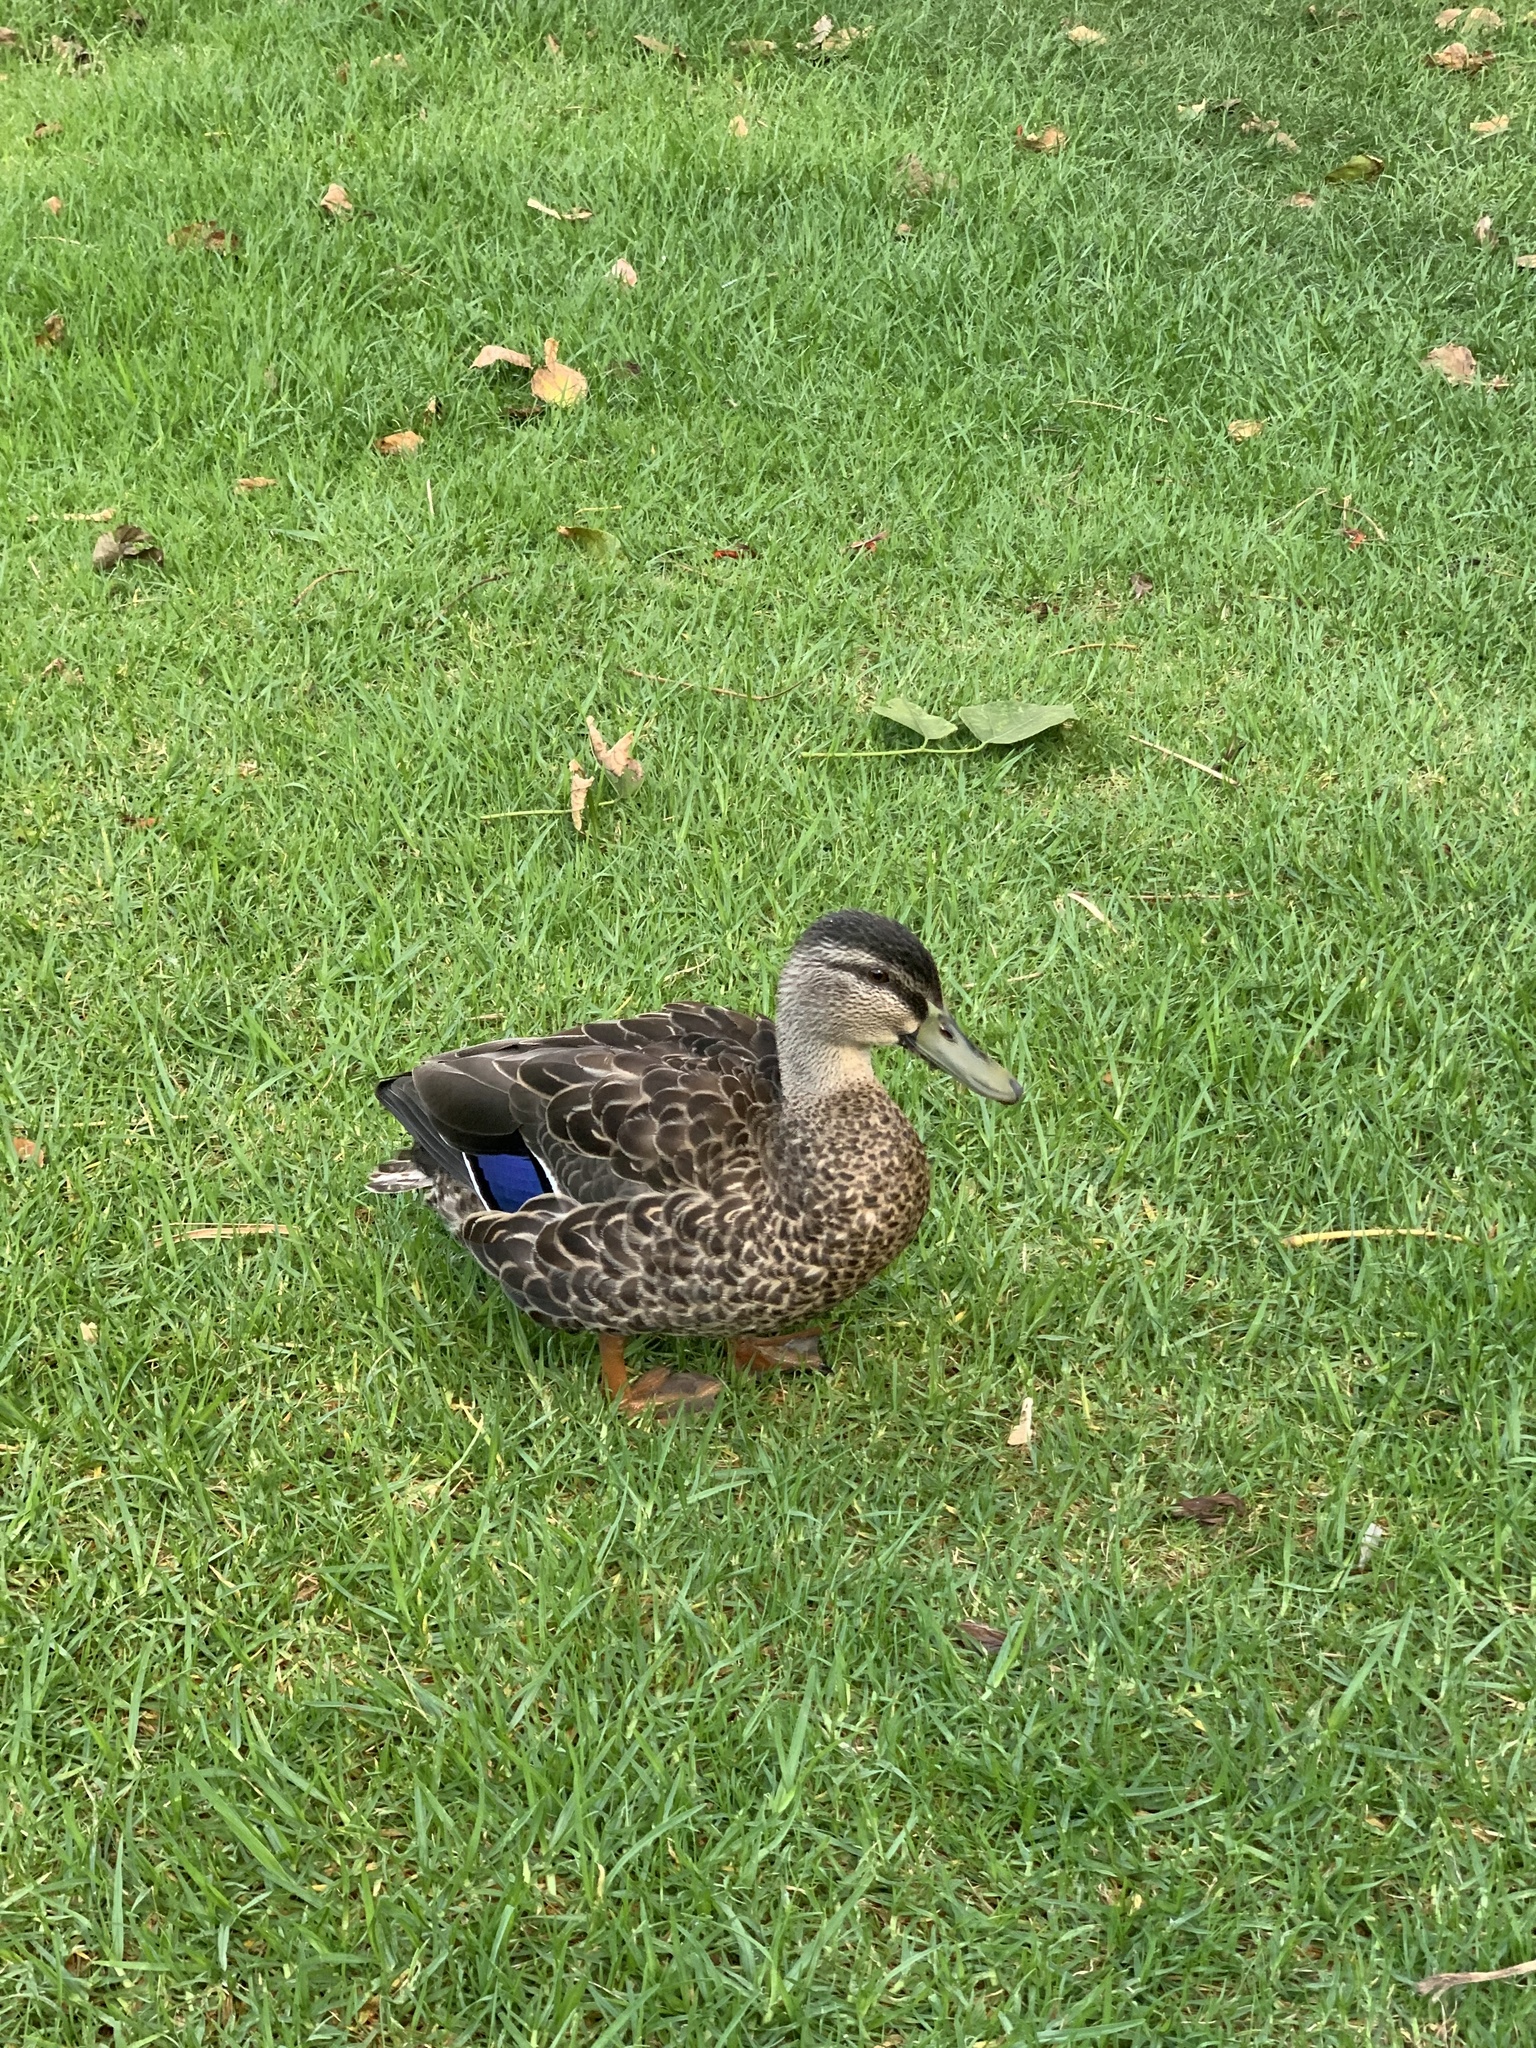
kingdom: Animalia
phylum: Chordata
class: Aves
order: Anseriformes
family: Anatidae
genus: Anas
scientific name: Anas
